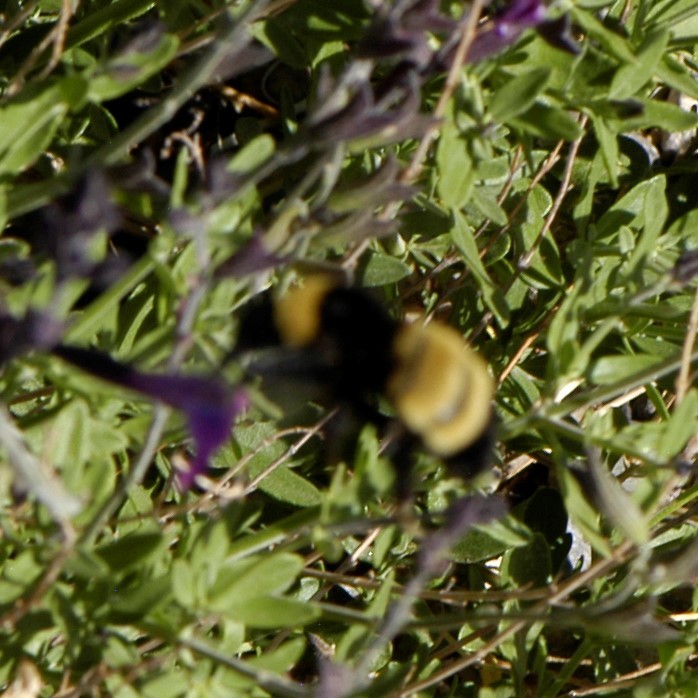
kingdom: Animalia
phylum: Arthropoda
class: Insecta
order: Hymenoptera
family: Apidae
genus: Bombus
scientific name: Bombus pensylvanicus
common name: Bumble bee
